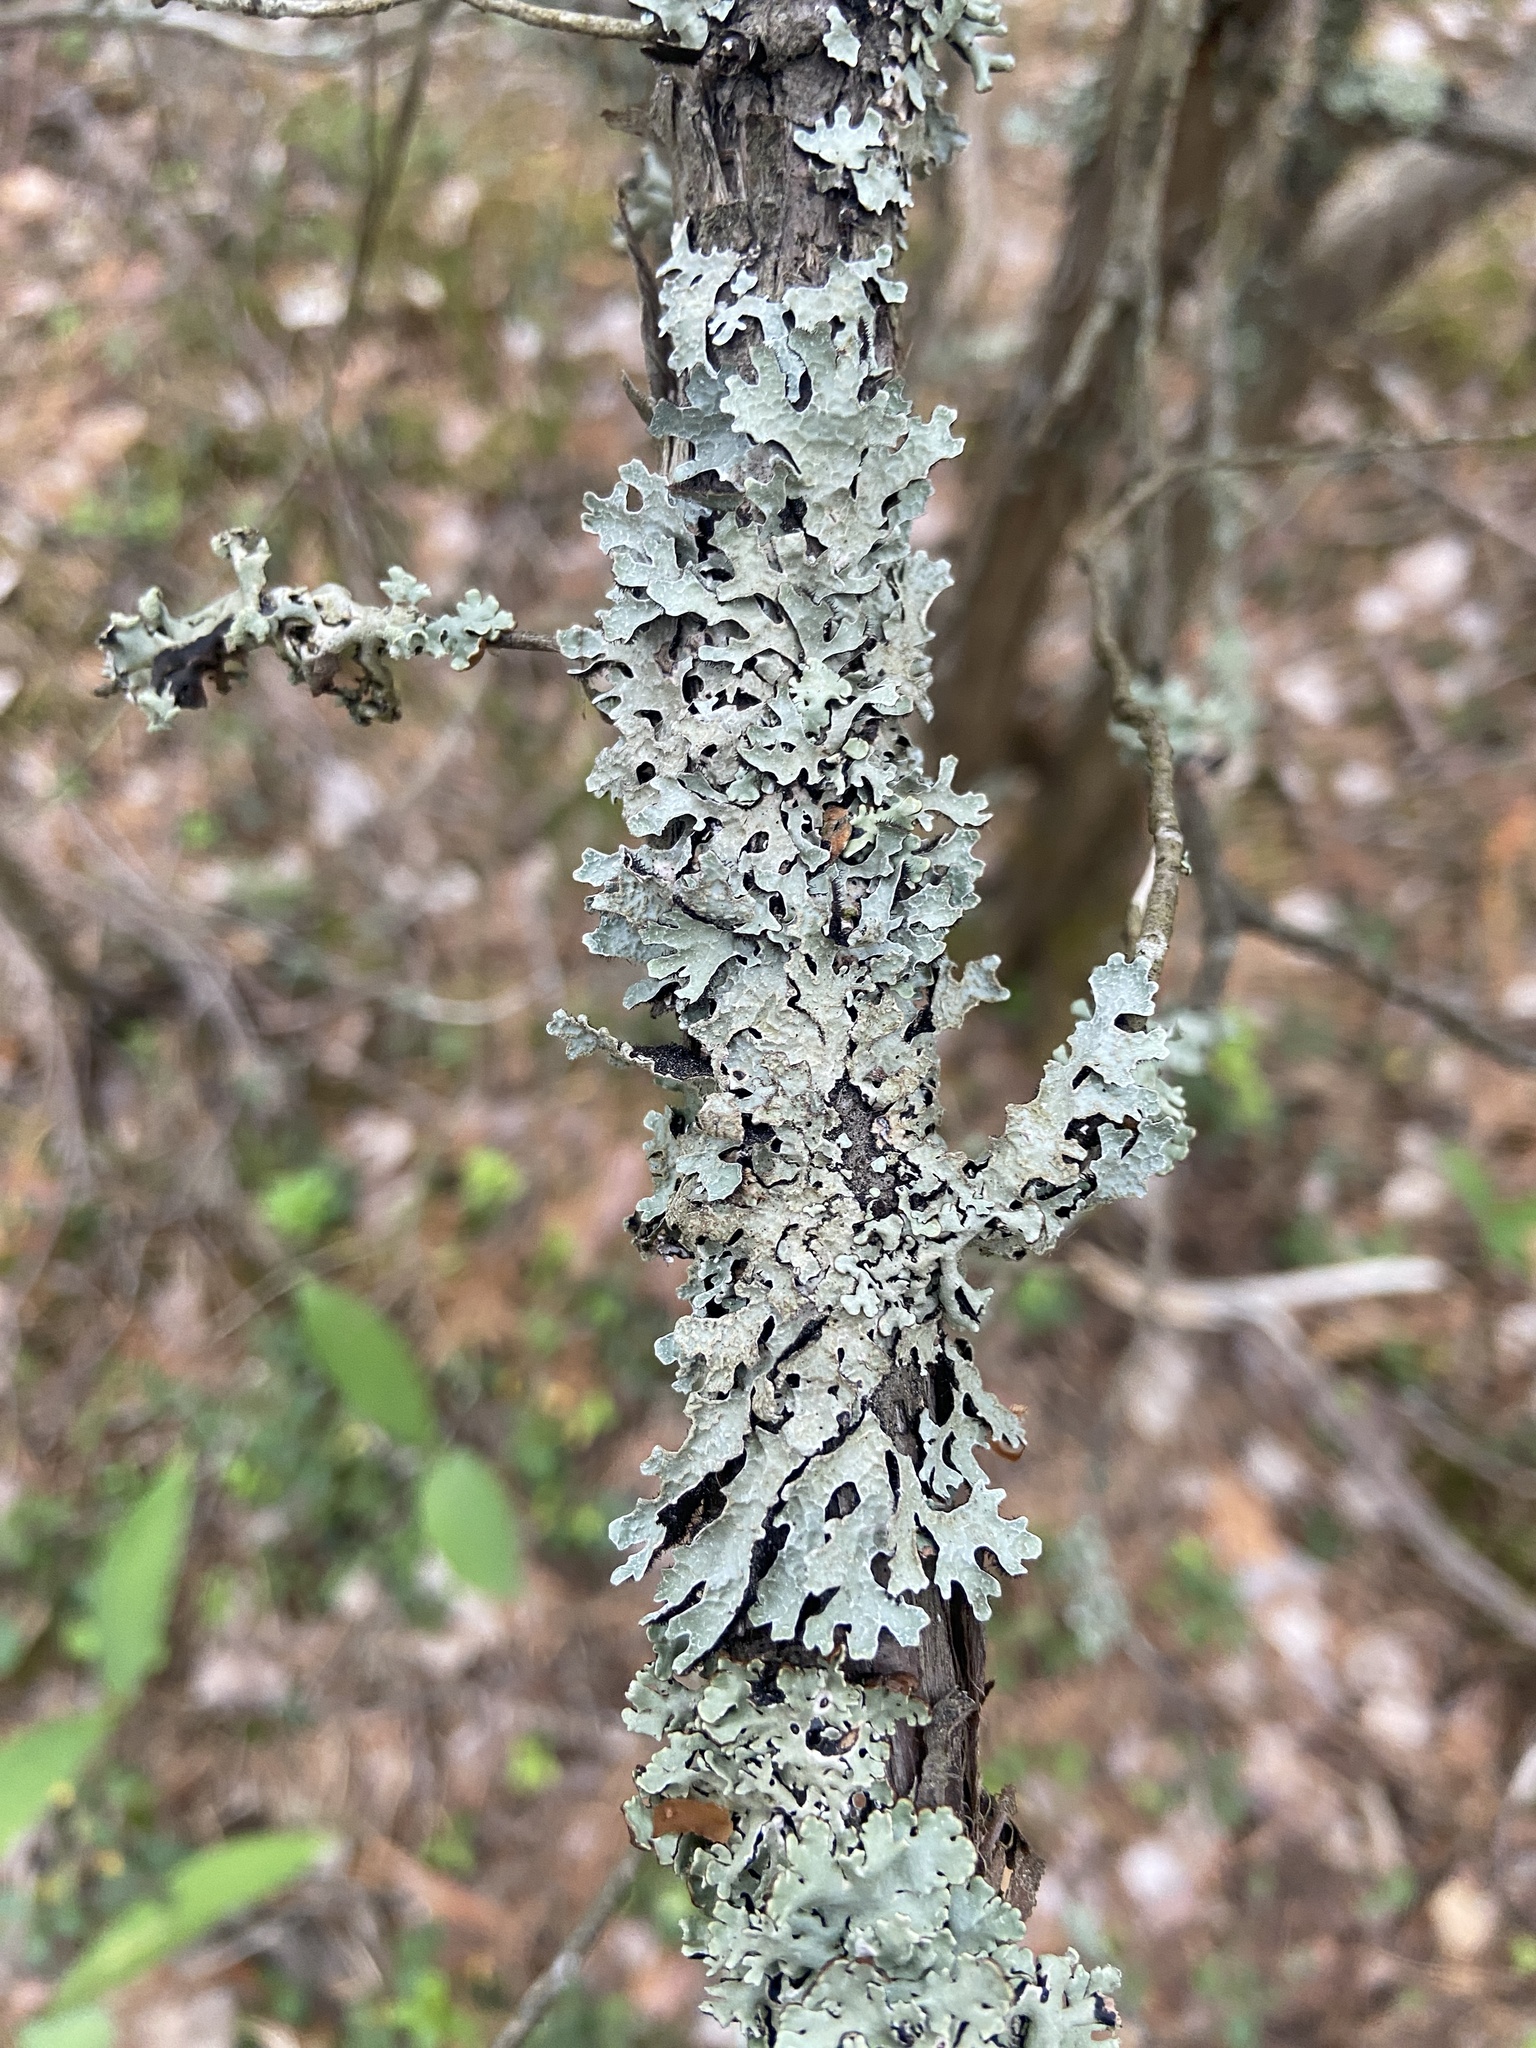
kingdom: Fungi
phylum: Ascomycota
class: Lecanoromycetes
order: Lecanorales
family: Parmeliaceae
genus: Parmelia
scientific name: Parmelia sulcata
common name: Netted shield lichen
